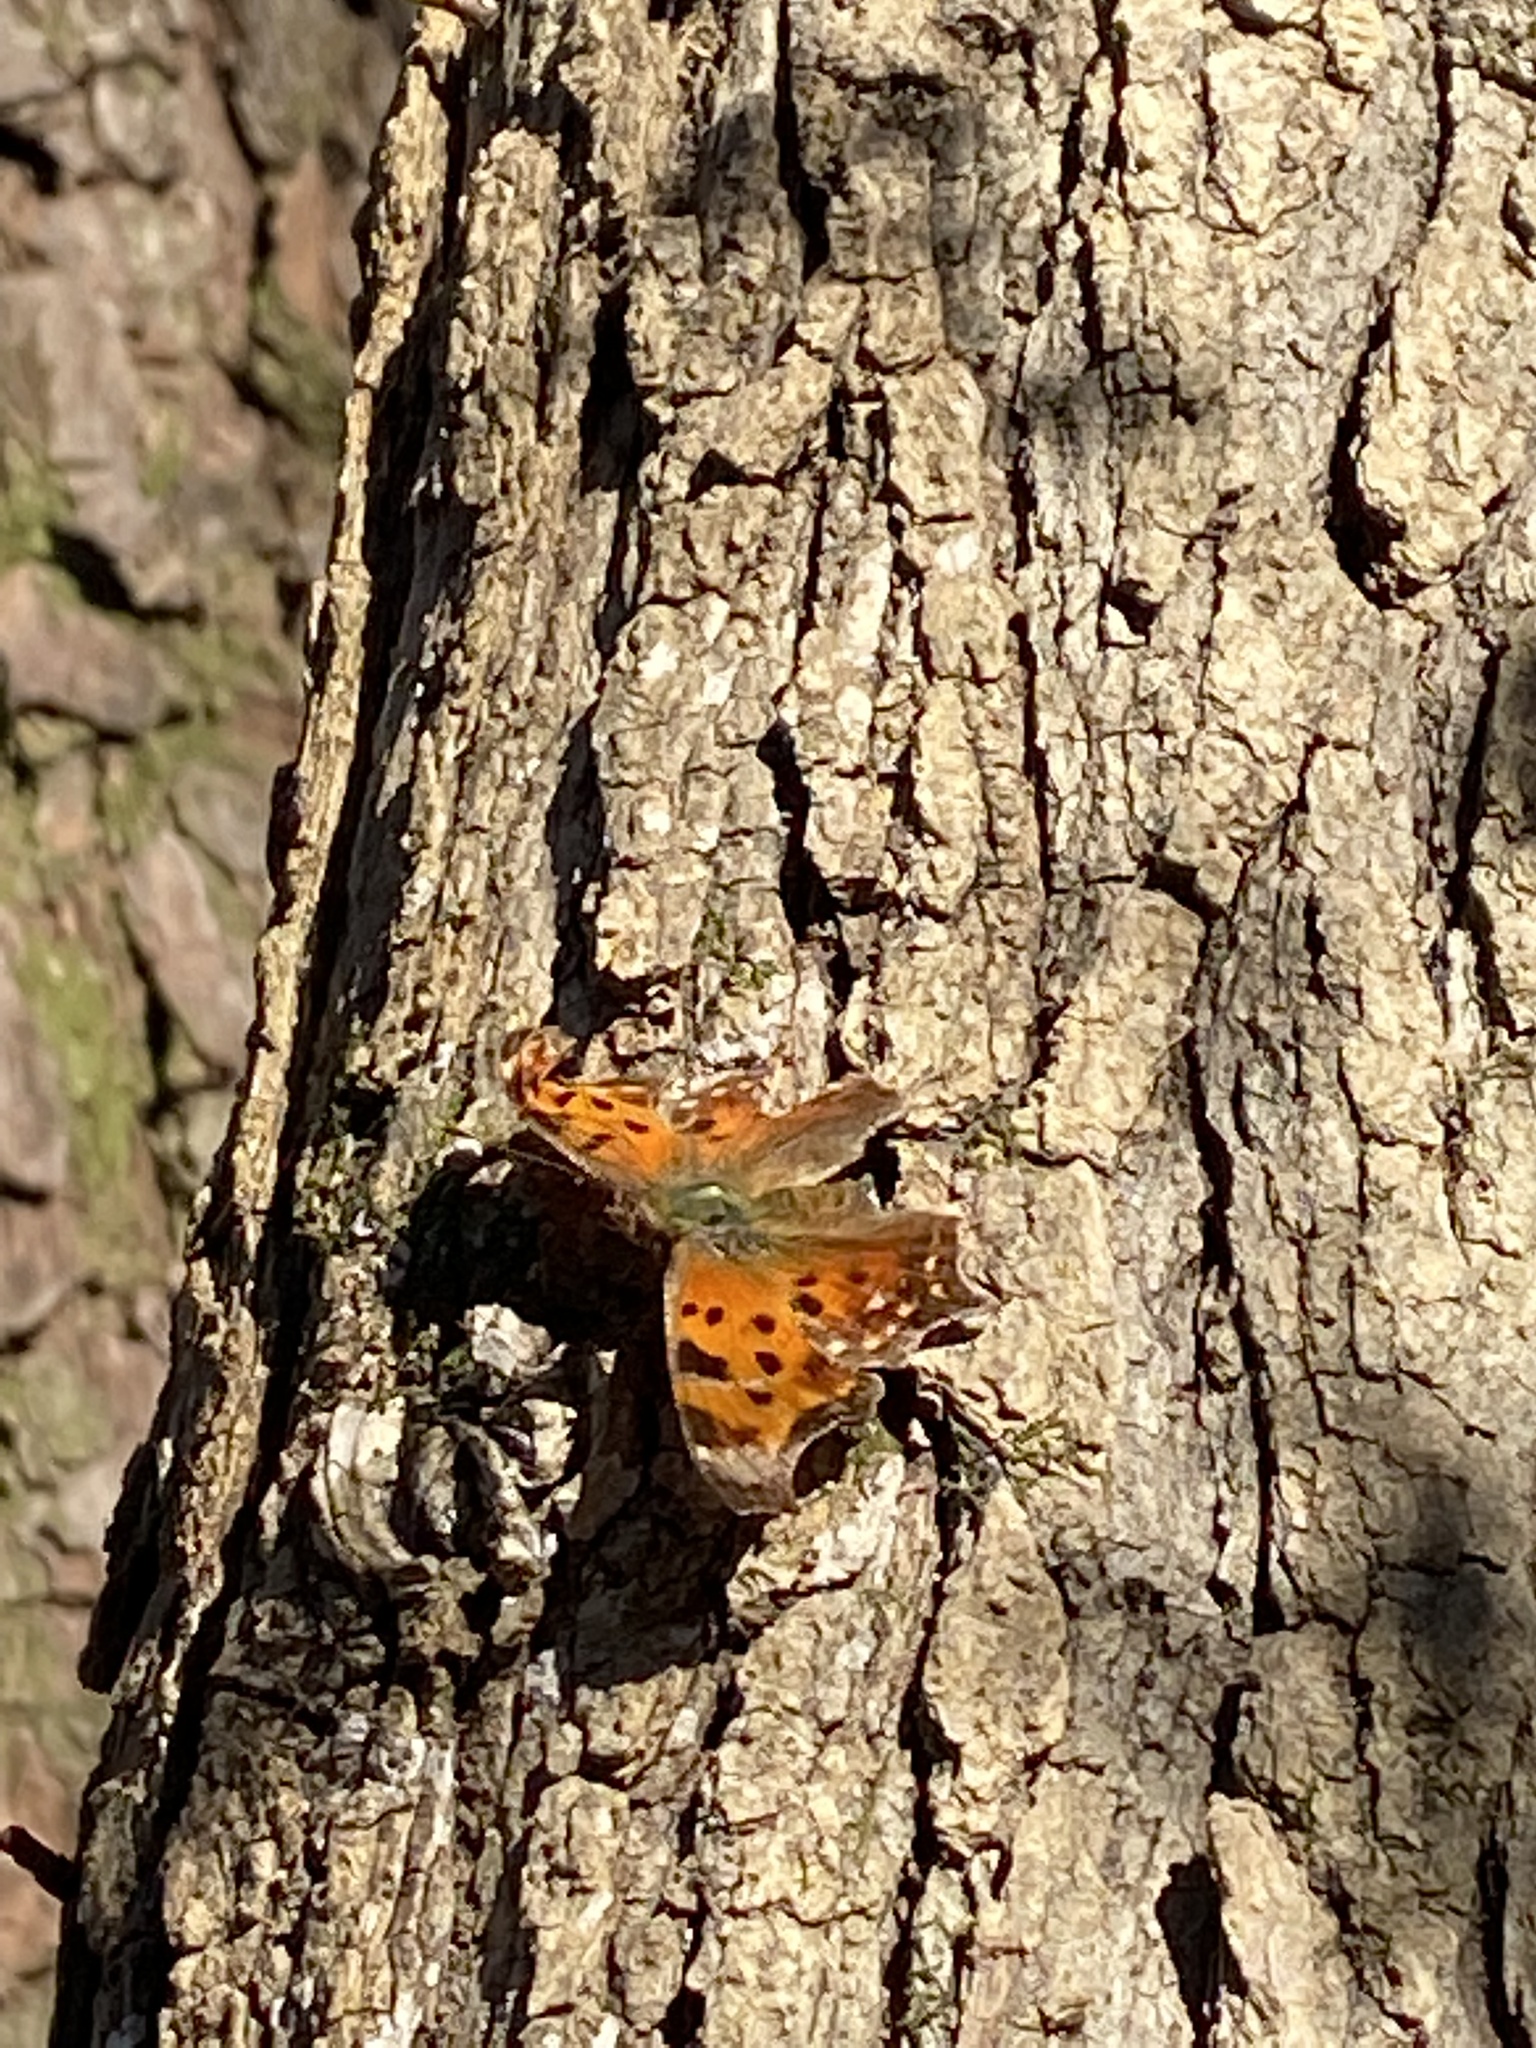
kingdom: Animalia
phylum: Arthropoda
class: Insecta
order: Lepidoptera
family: Nymphalidae
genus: Polygonia
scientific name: Polygonia comma
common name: Eastern comma
